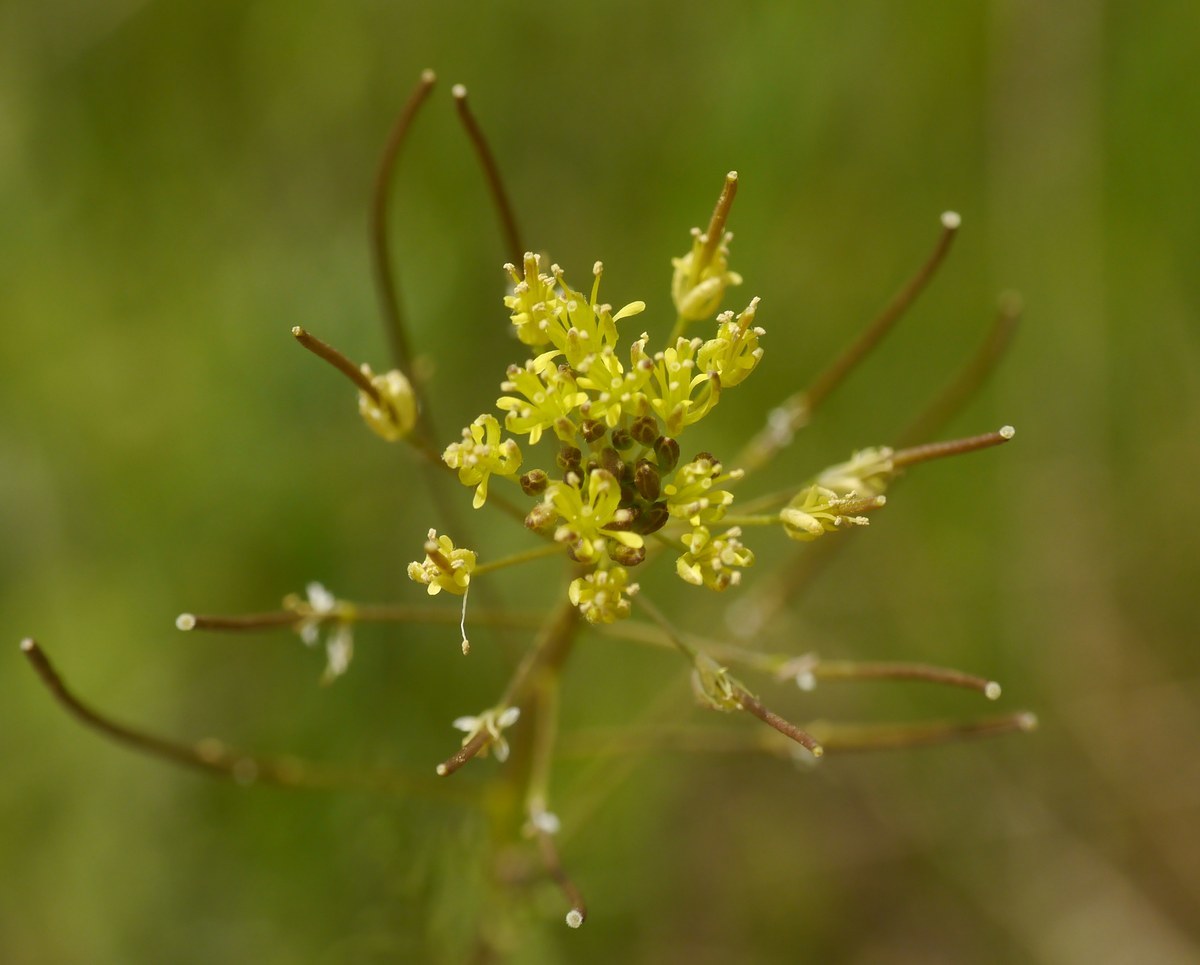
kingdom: Plantae
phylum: Tracheophyta
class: Magnoliopsida
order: Brassicales
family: Brassicaceae
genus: Descurainia
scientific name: Descurainia sophia
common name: Flixweed
